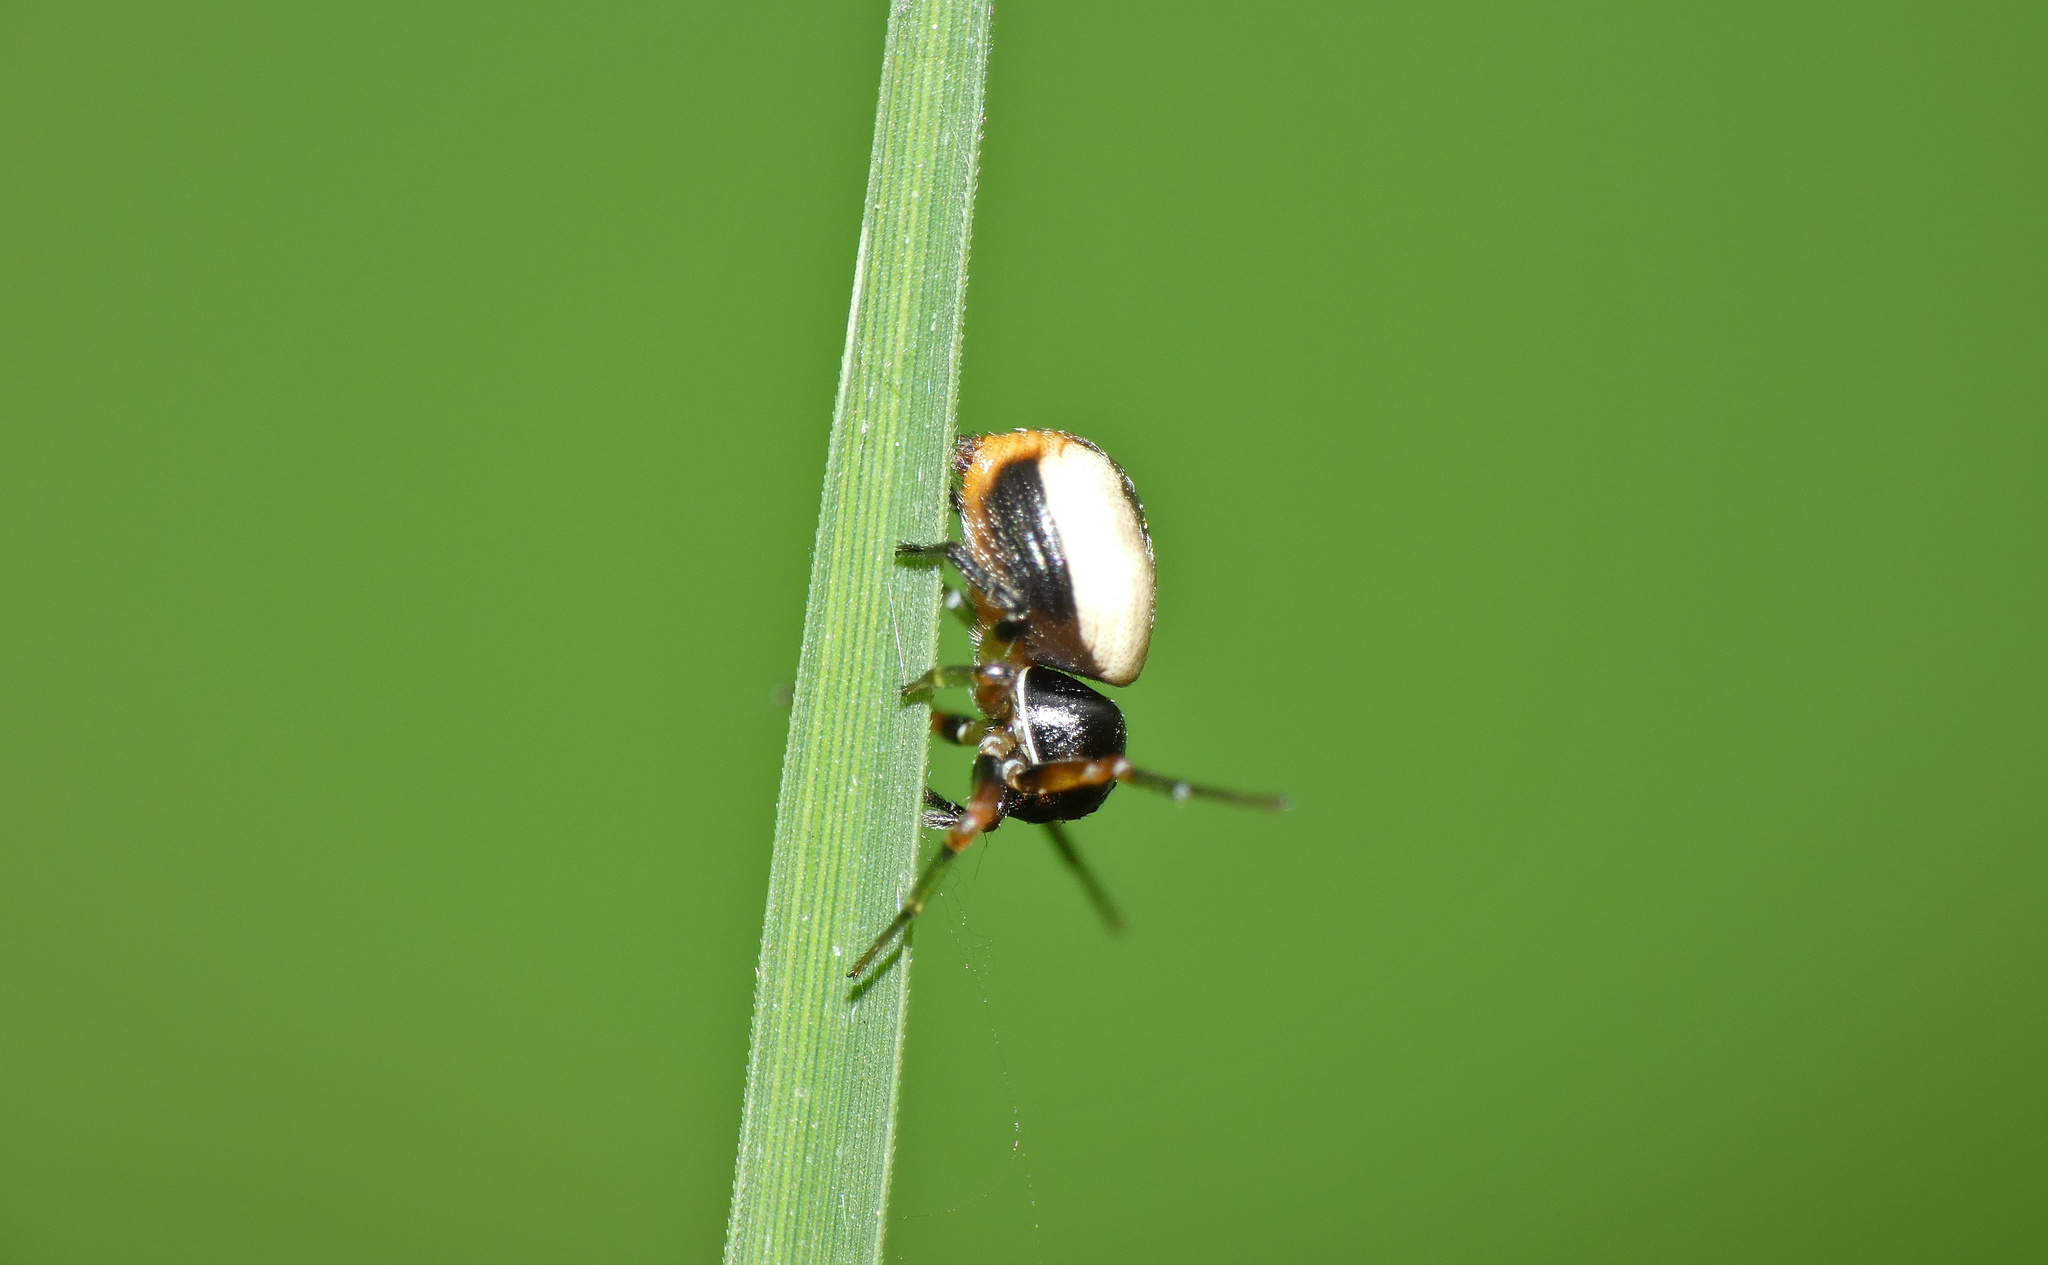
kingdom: Animalia
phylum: Arthropoda
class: Arachnida
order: Araneae
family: Thomisidae
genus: Mystaria
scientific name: Mystaria savannensis
